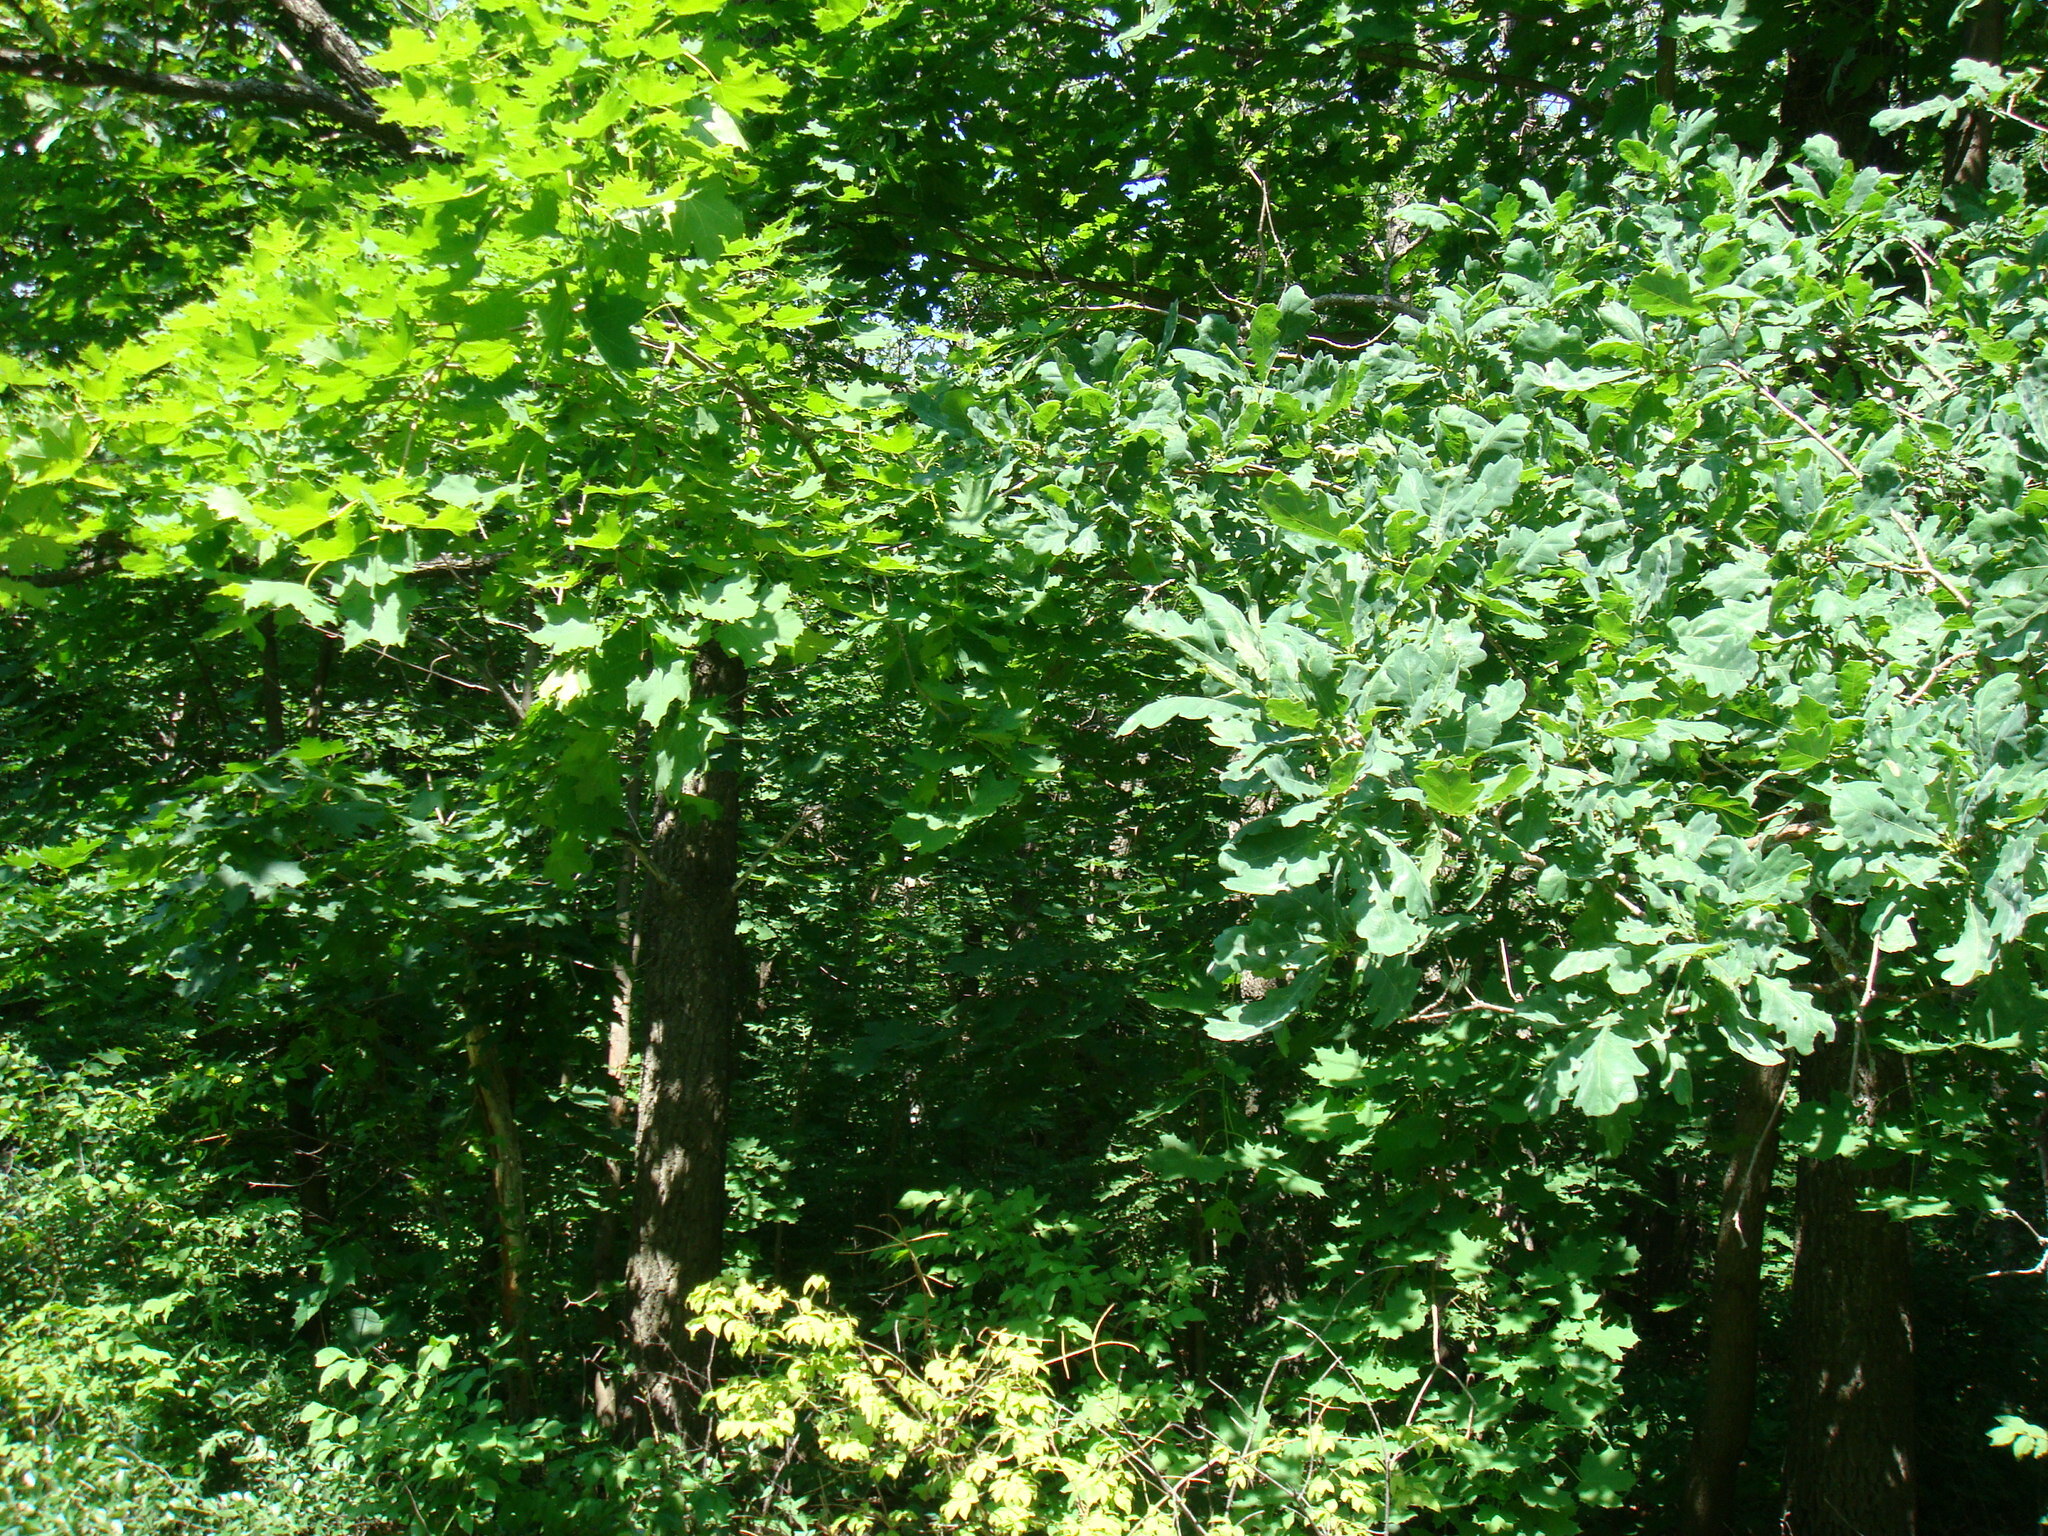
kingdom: Plantae
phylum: Tracheophyta
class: Magnoliopsida
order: Sapindales
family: Sapindaceae
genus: Acer
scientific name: Acer platanoides
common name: Norway maple
